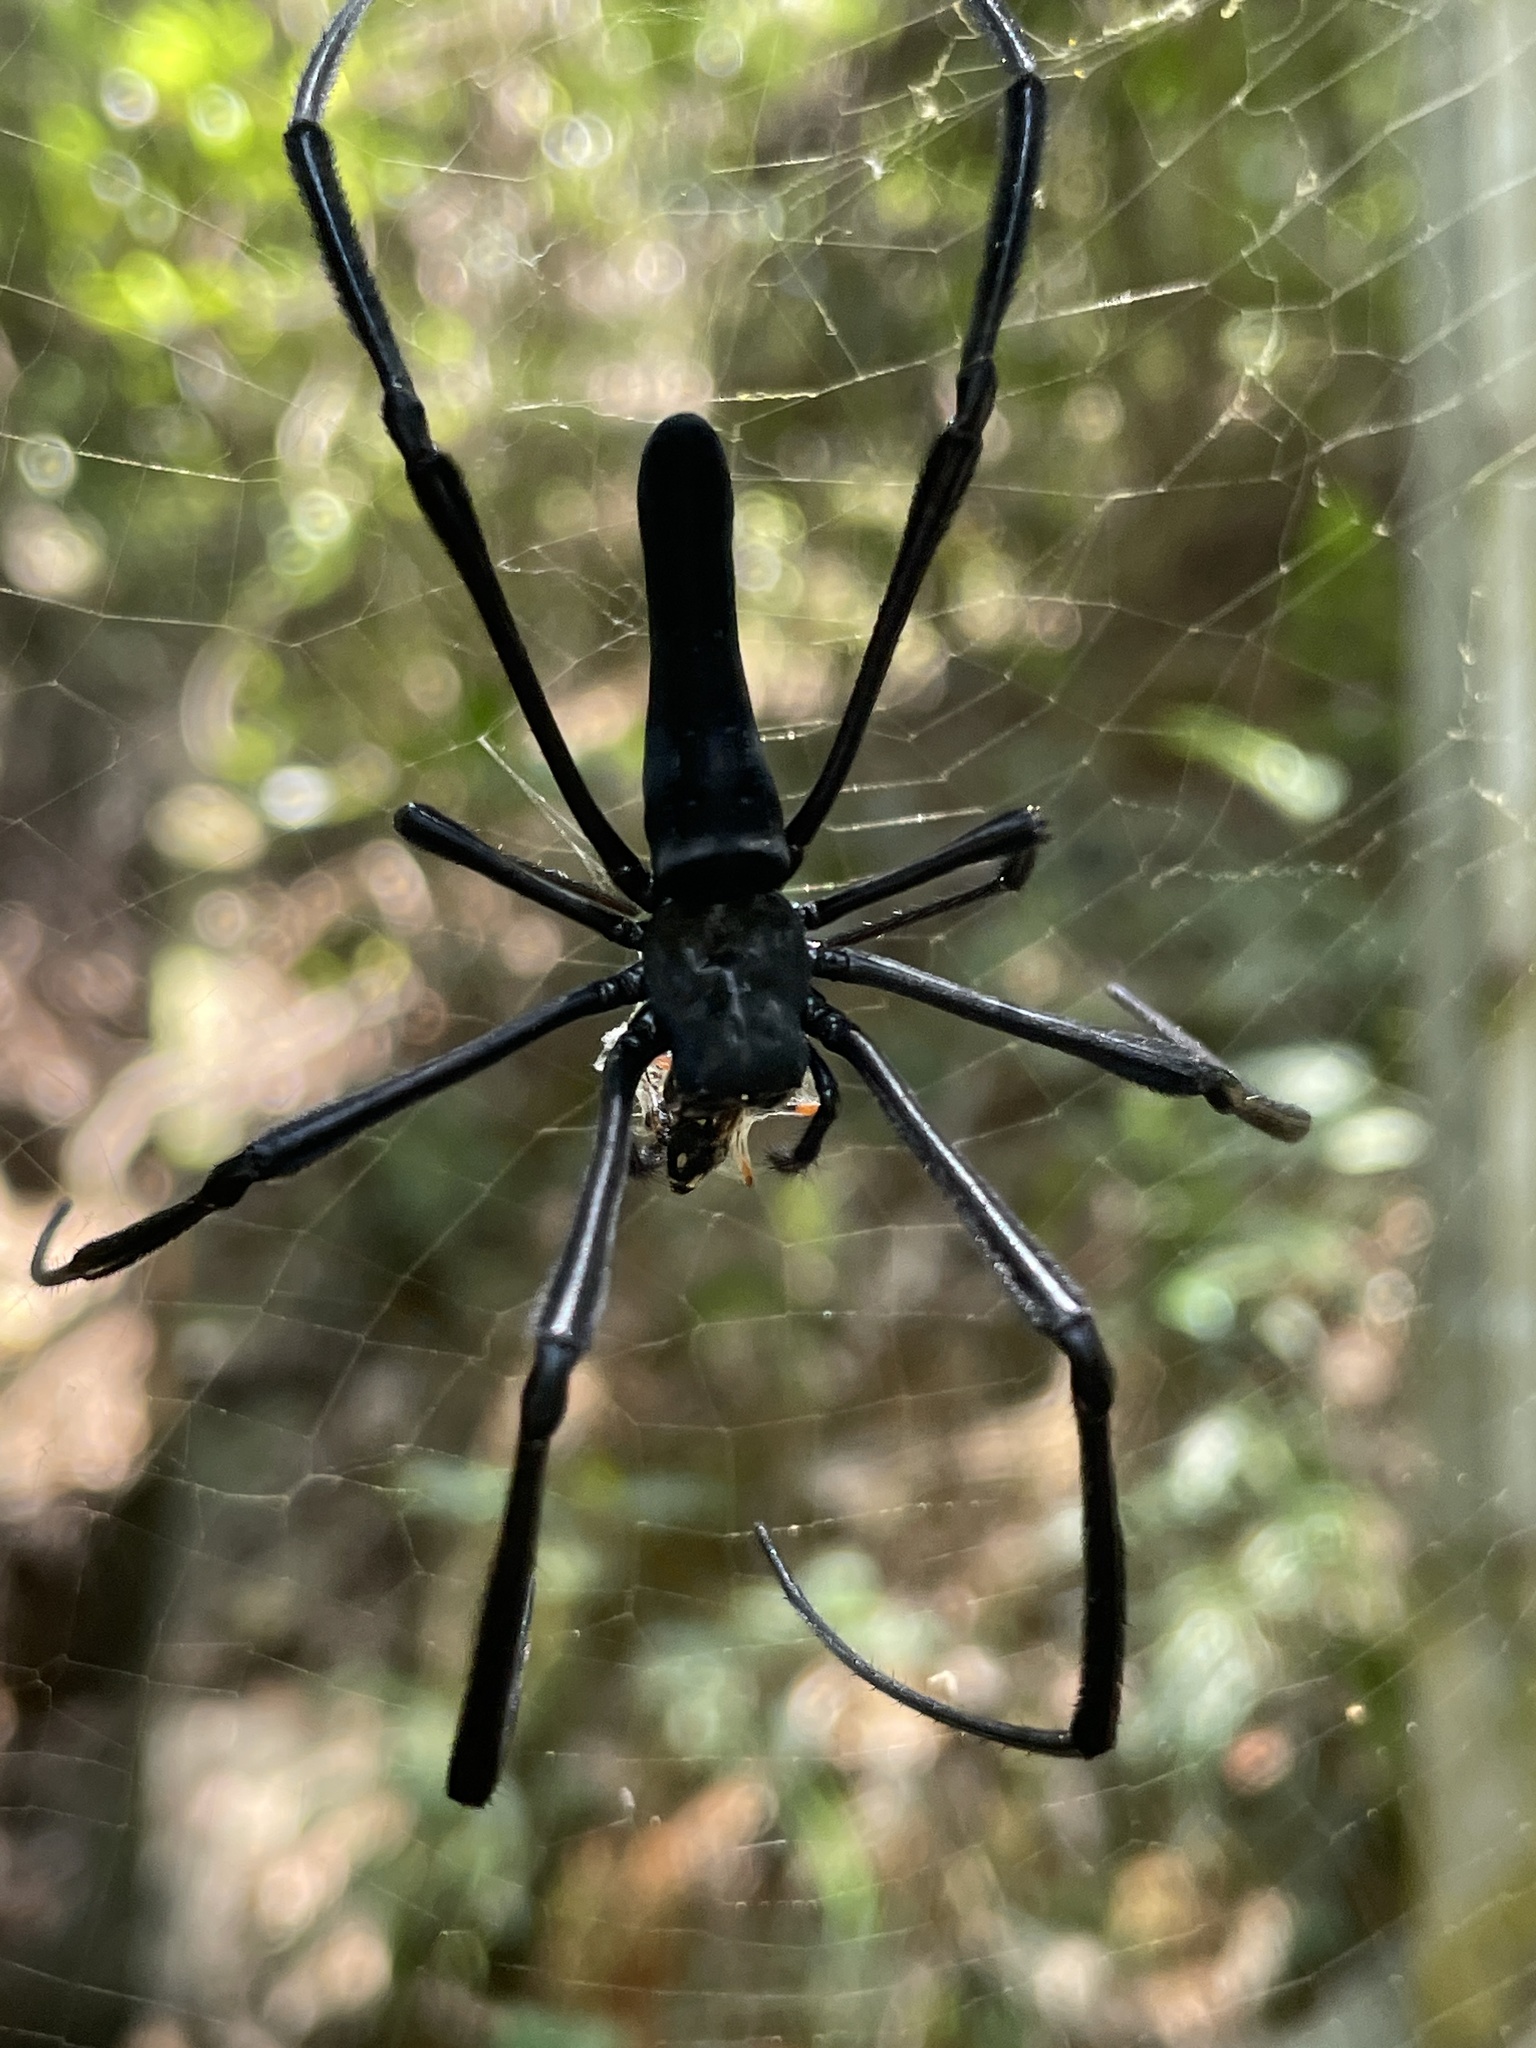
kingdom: Animalia
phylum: Arthropoda
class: Arachnida
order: Araneae
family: Araneidae
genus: Nephila
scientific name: Nephila pilipes
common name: Giant golden orb weaver
